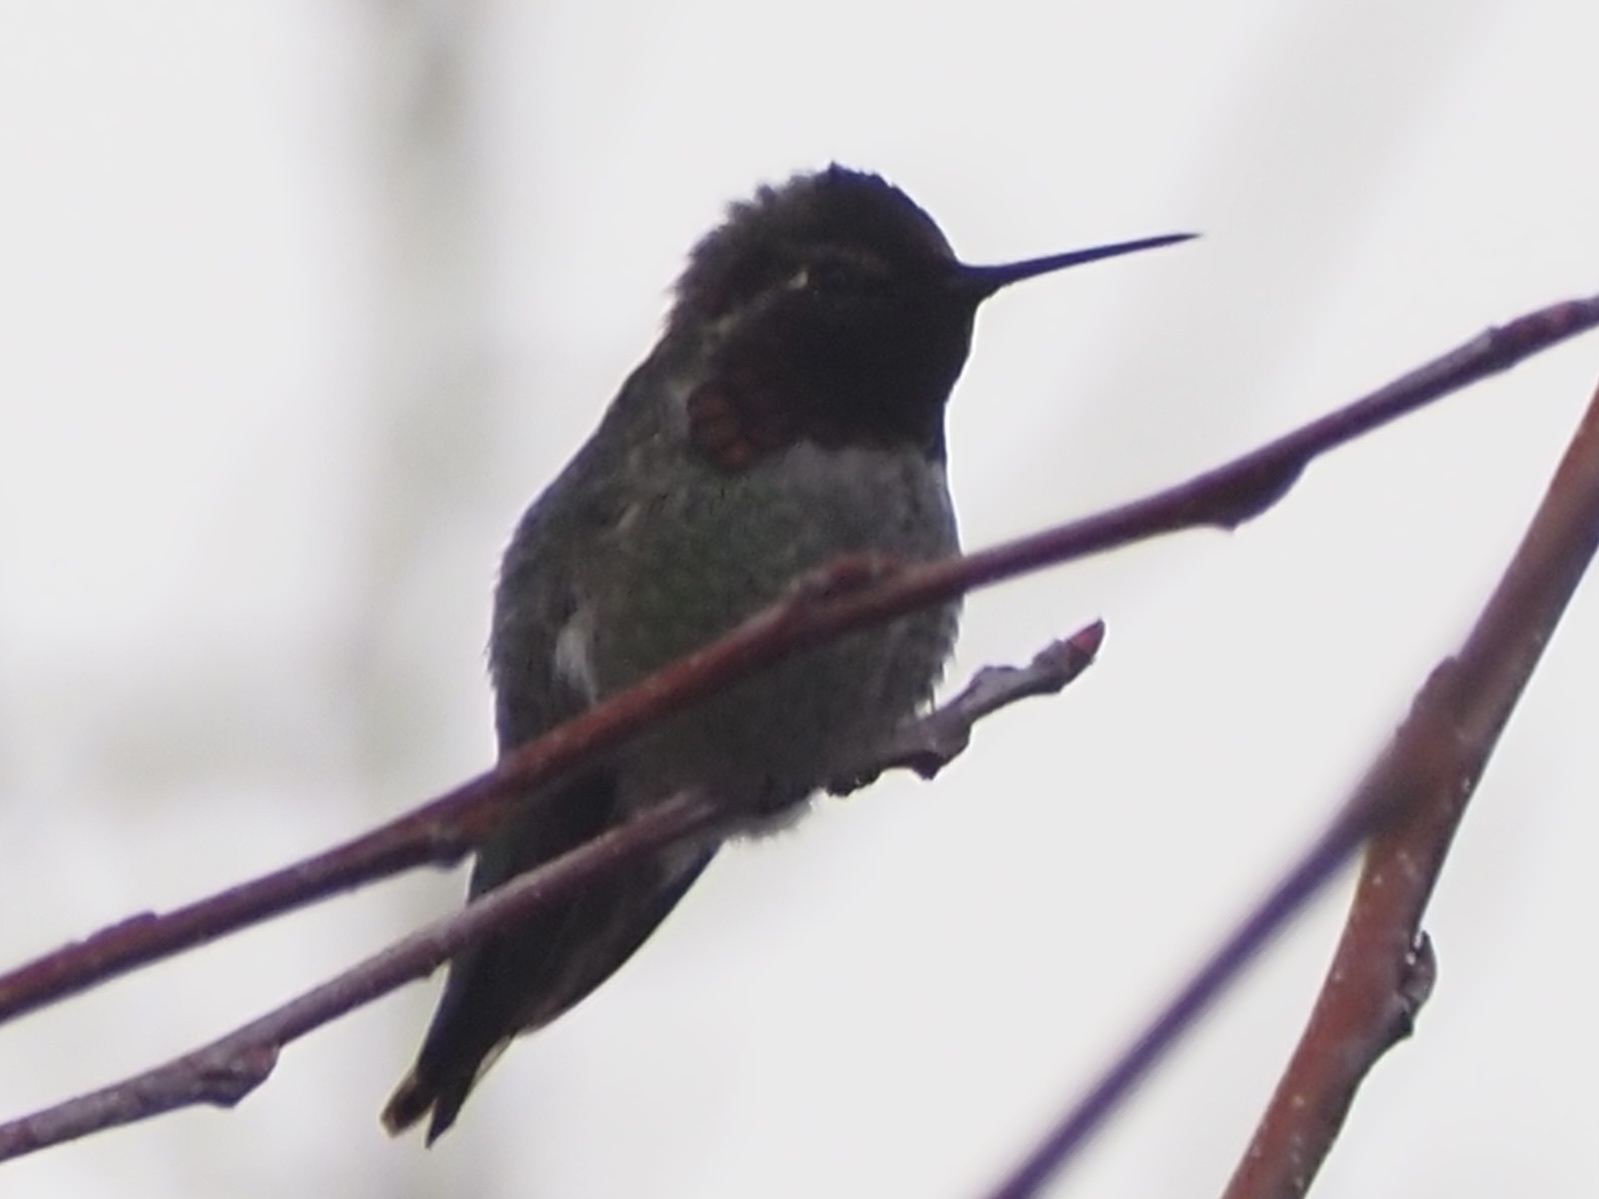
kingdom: Animalia
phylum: Chordata
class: Aves
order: Apodiformes
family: Trochilidae
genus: Calypte
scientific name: Calypte anna
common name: Anna's hummingbird
